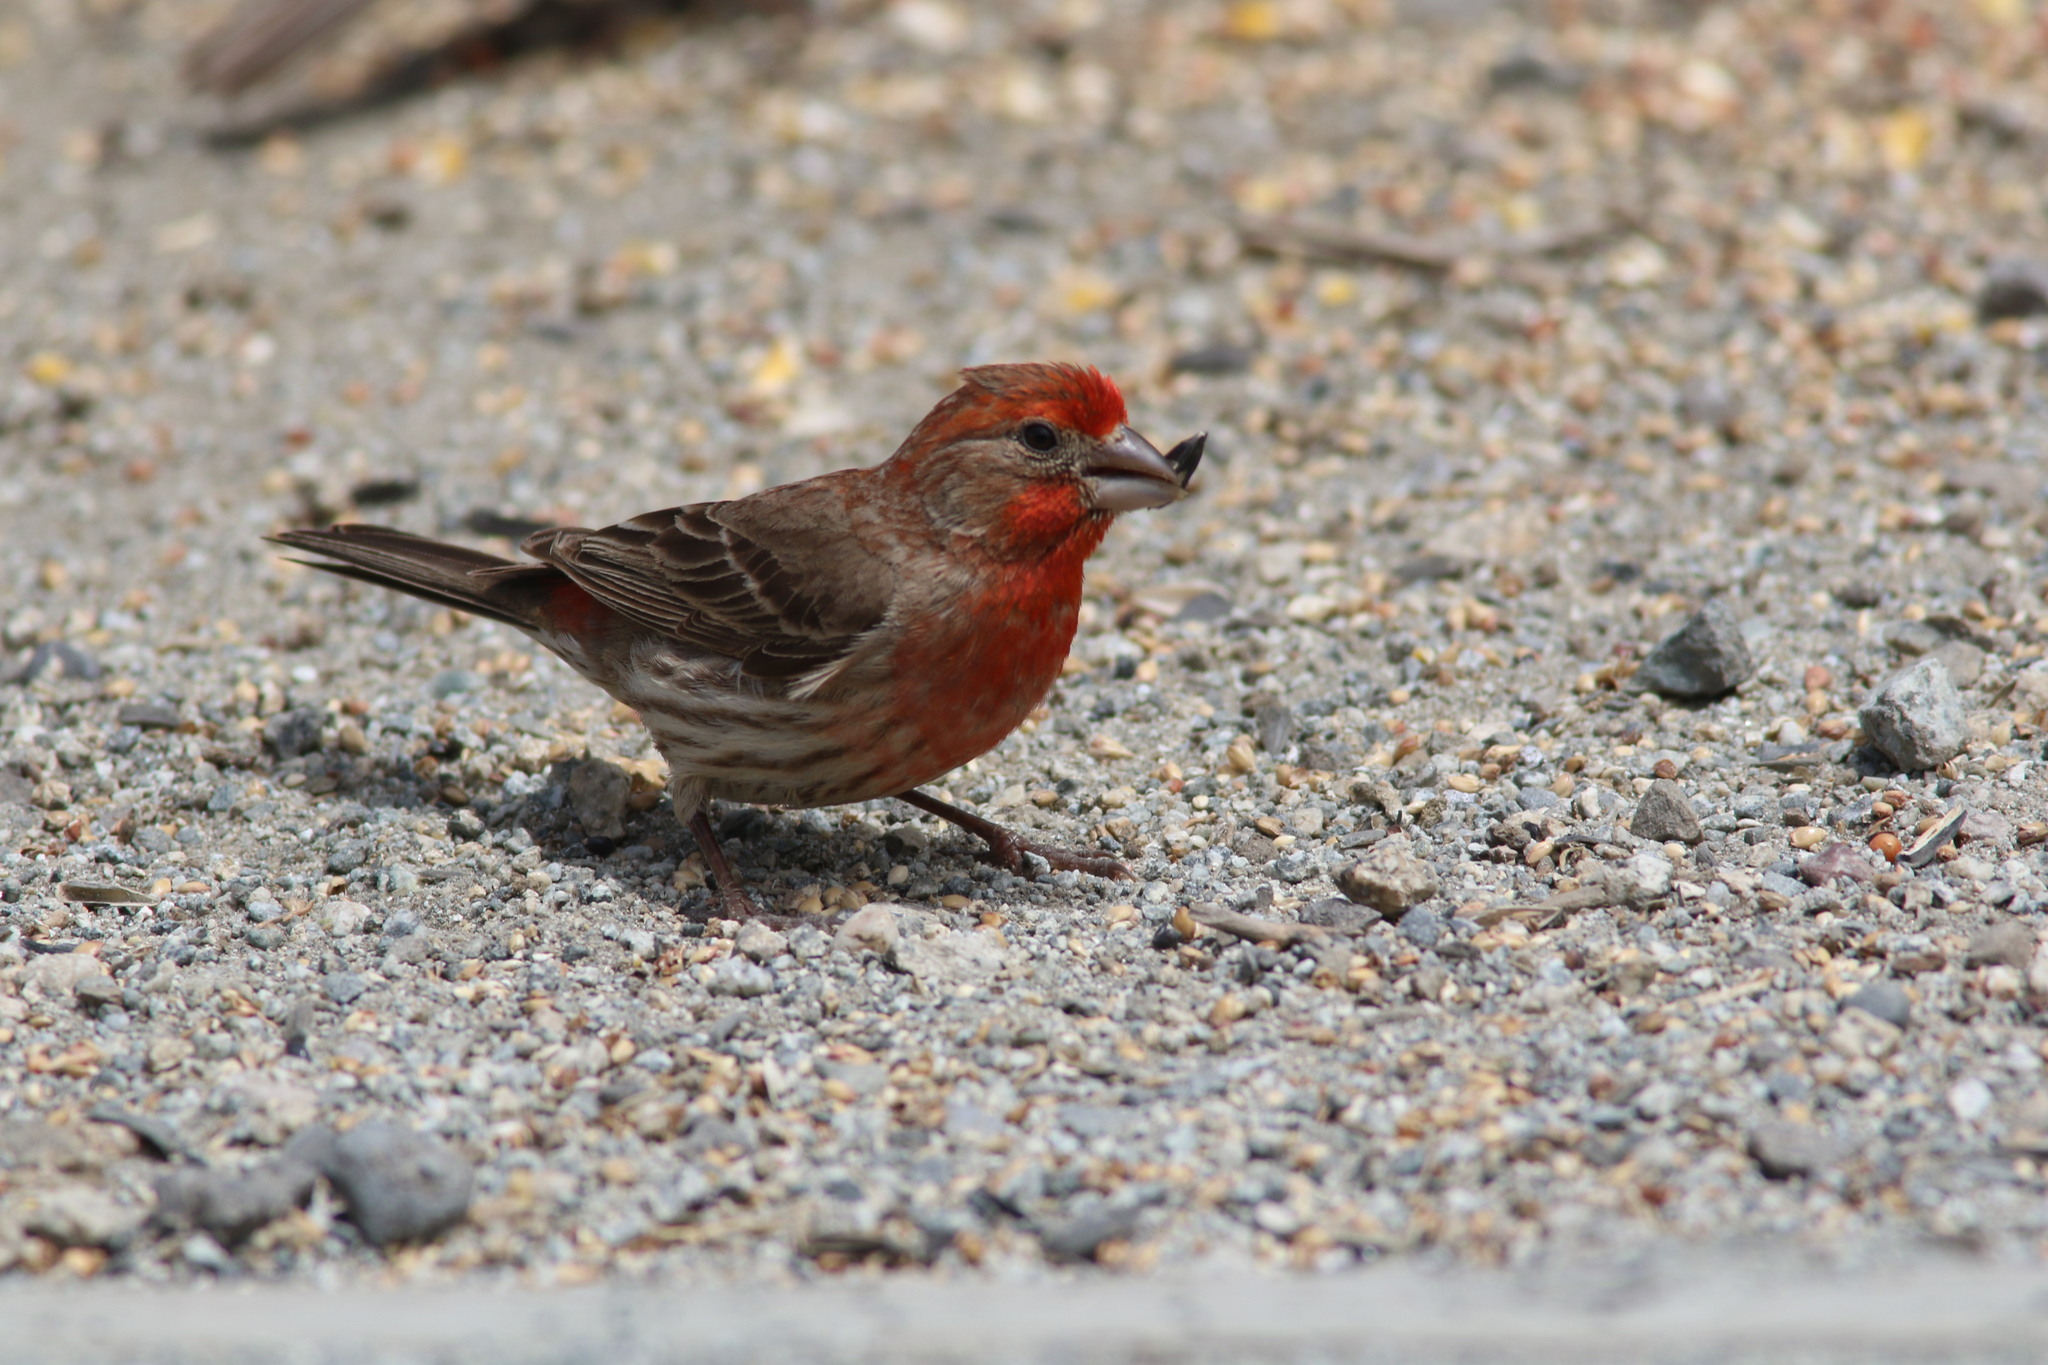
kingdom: Animalia
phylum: Chordata
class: Aves
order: Passeriformes
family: Fringillidae
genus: Haemorhous
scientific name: Haemorhous mexicanus
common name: House finch
